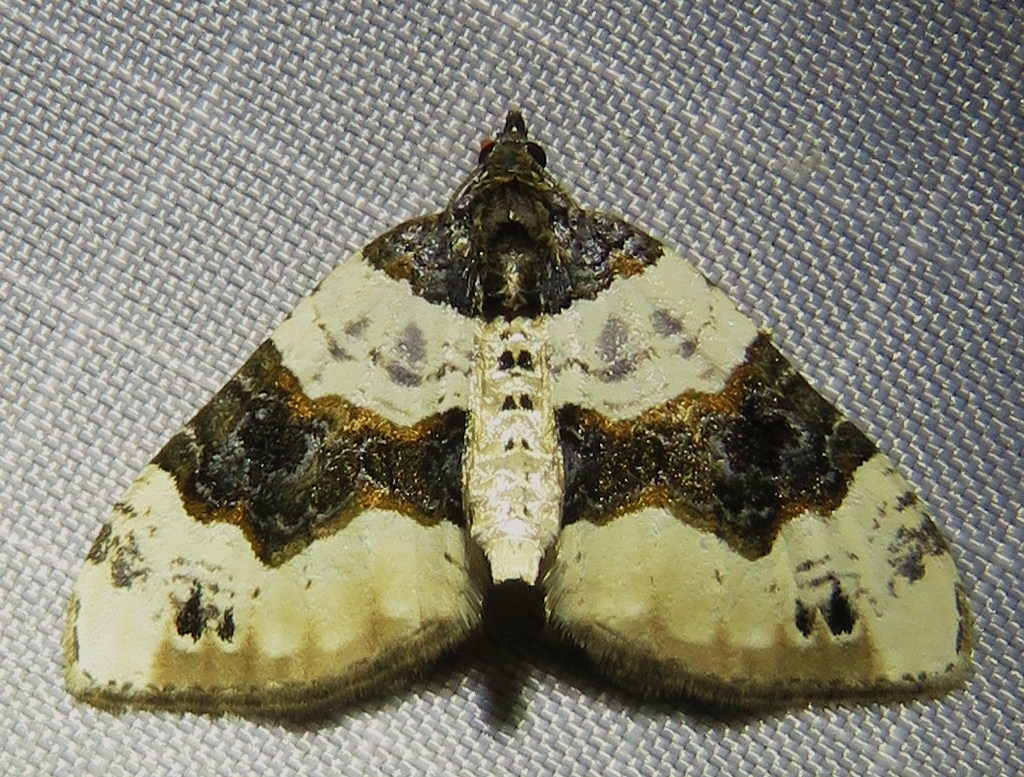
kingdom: Animalia
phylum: Arthropoda
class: Insecta
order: Lepidoptera
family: Geometridae
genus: Cosmorhoe
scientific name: Cosmorhoe ocellata
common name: Purple bar
